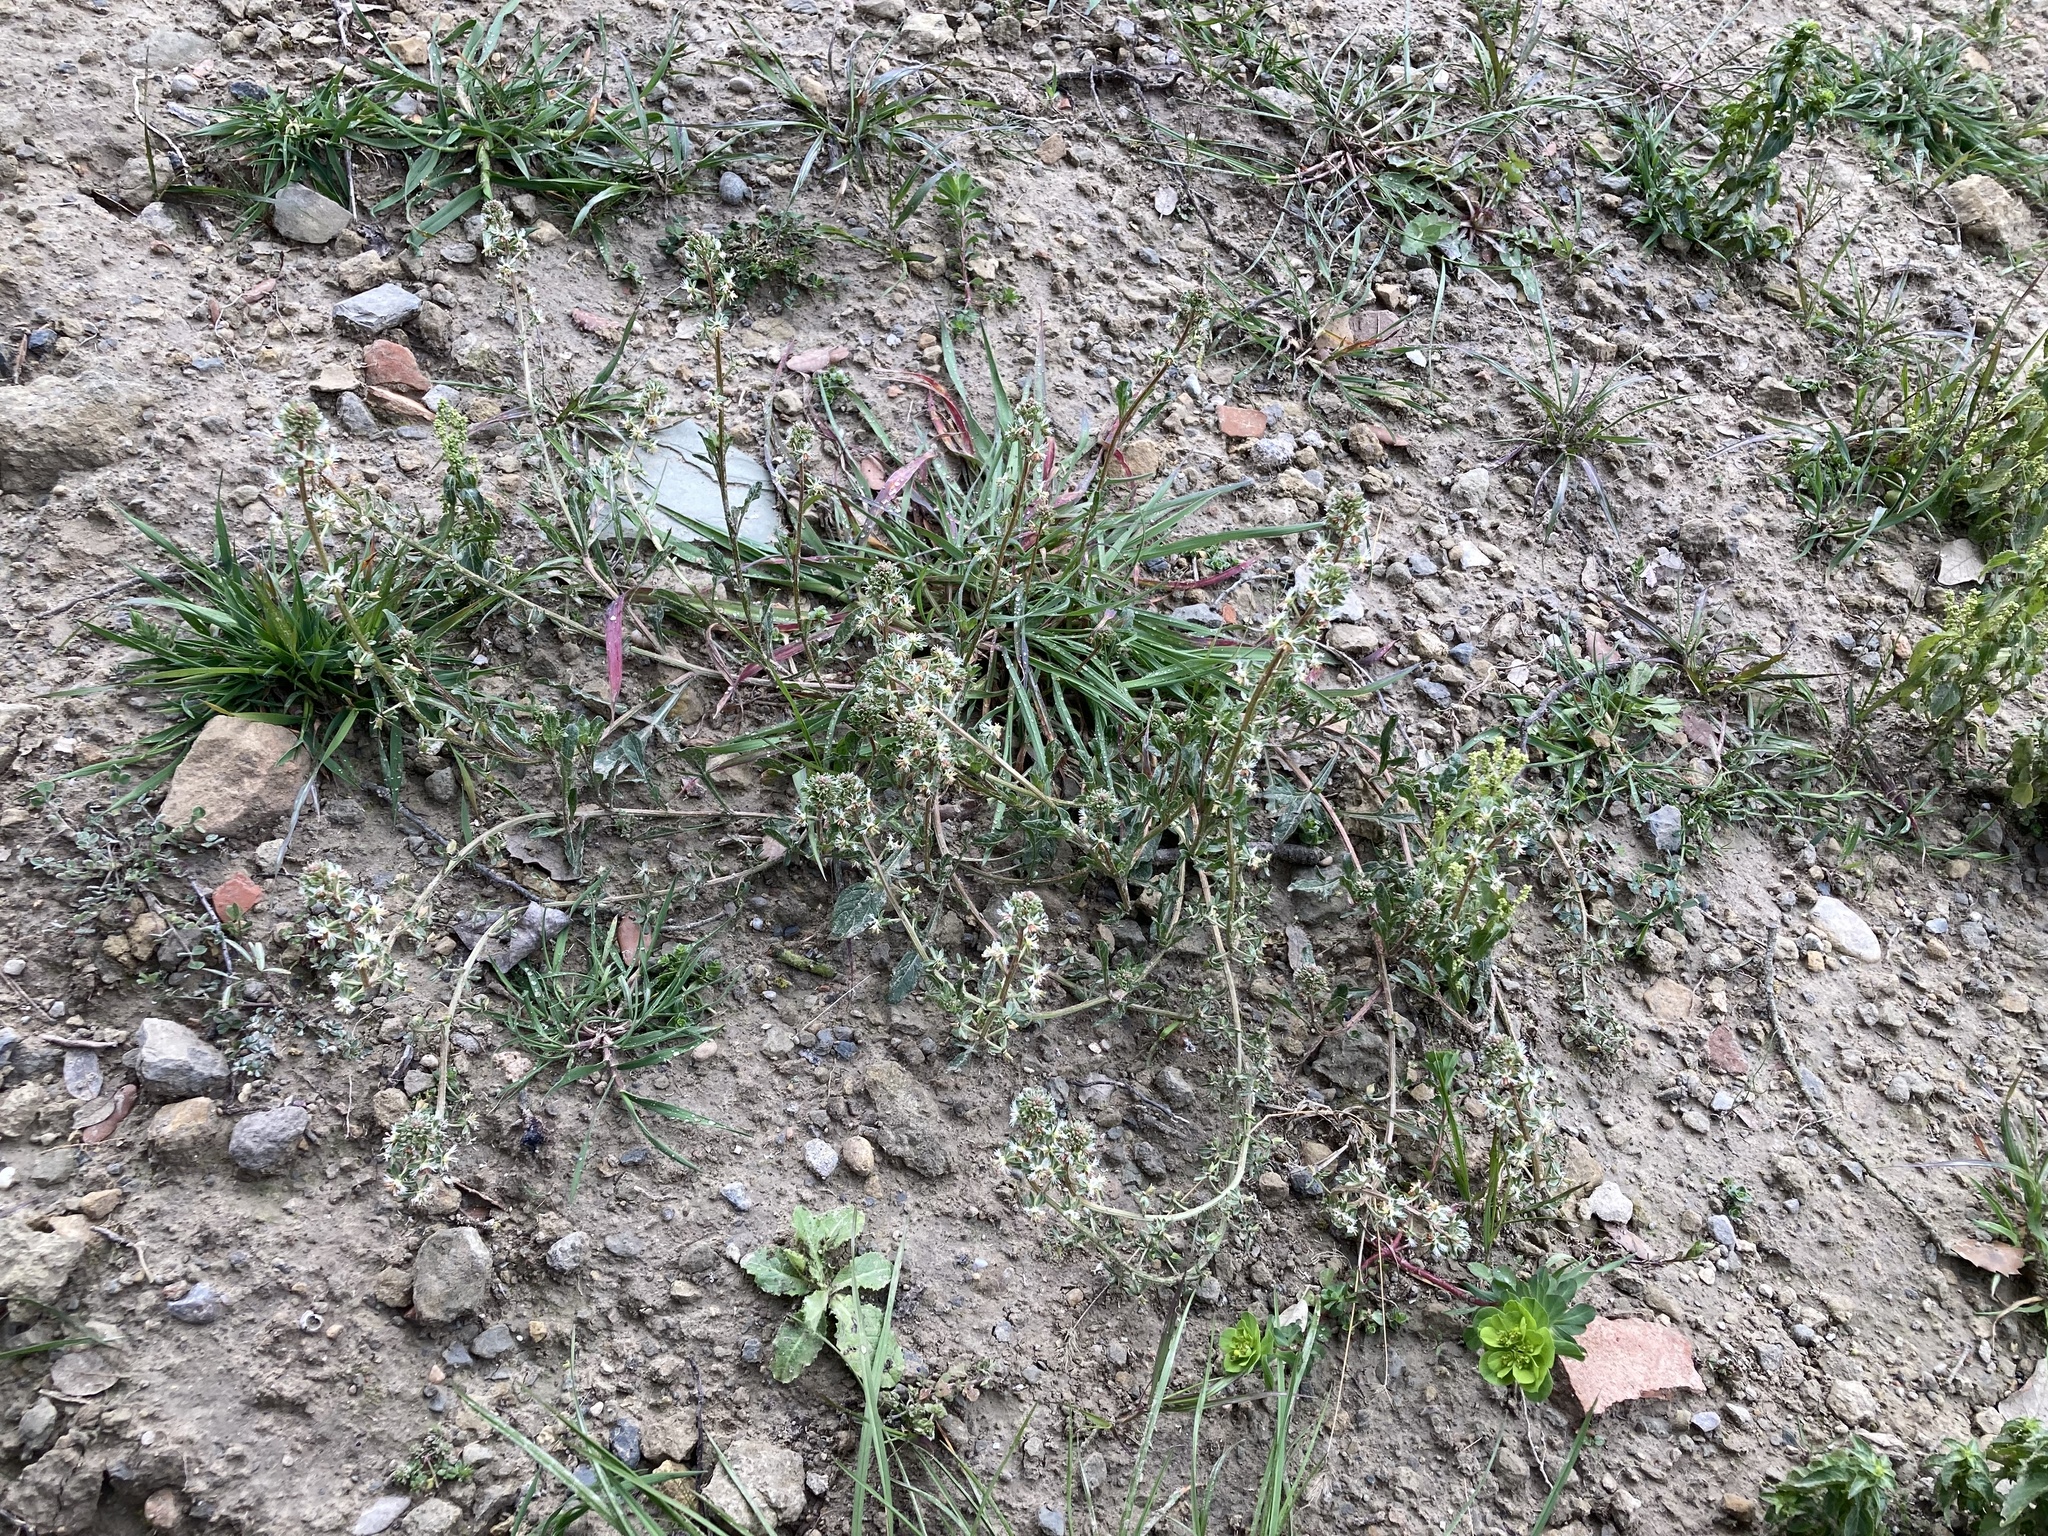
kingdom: Plantae
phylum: Tracheophyta
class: Magnoliopsida
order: Brassicales
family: Resedaceae
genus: Reseda
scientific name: Reseda phyteuma
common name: Corn mignonette
